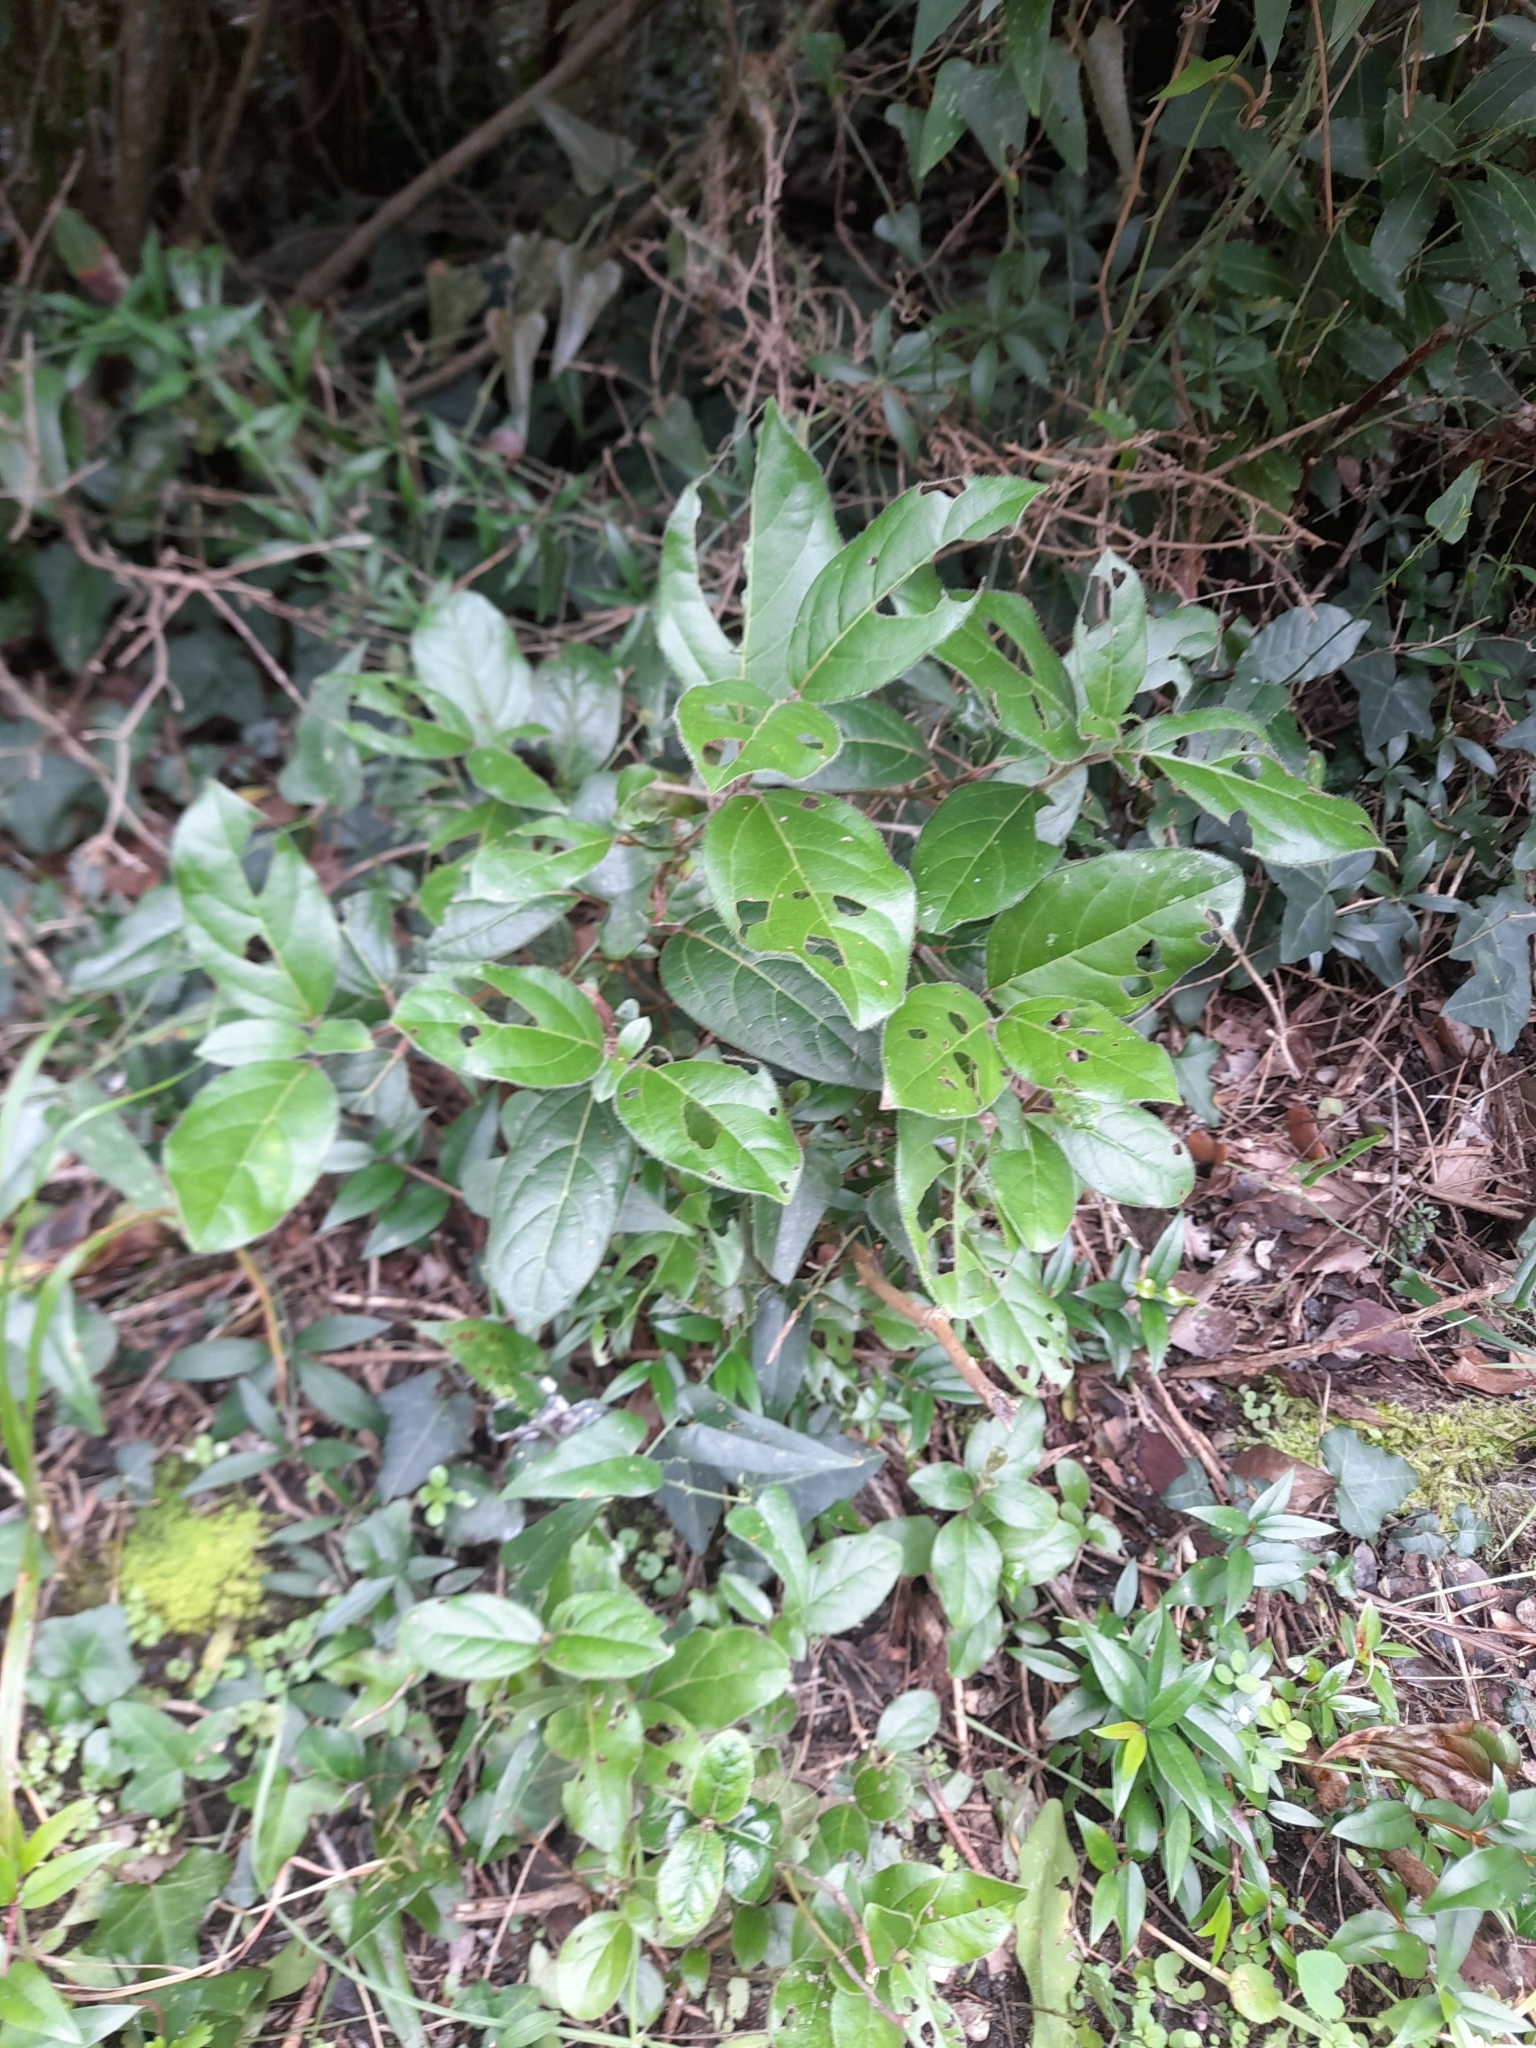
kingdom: Plantae
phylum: Tracheophyta
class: Magnoliopsida
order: Dipsacales
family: Viburnaceae
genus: Viburnum
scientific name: Viburnum tinus
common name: Laurustinus
